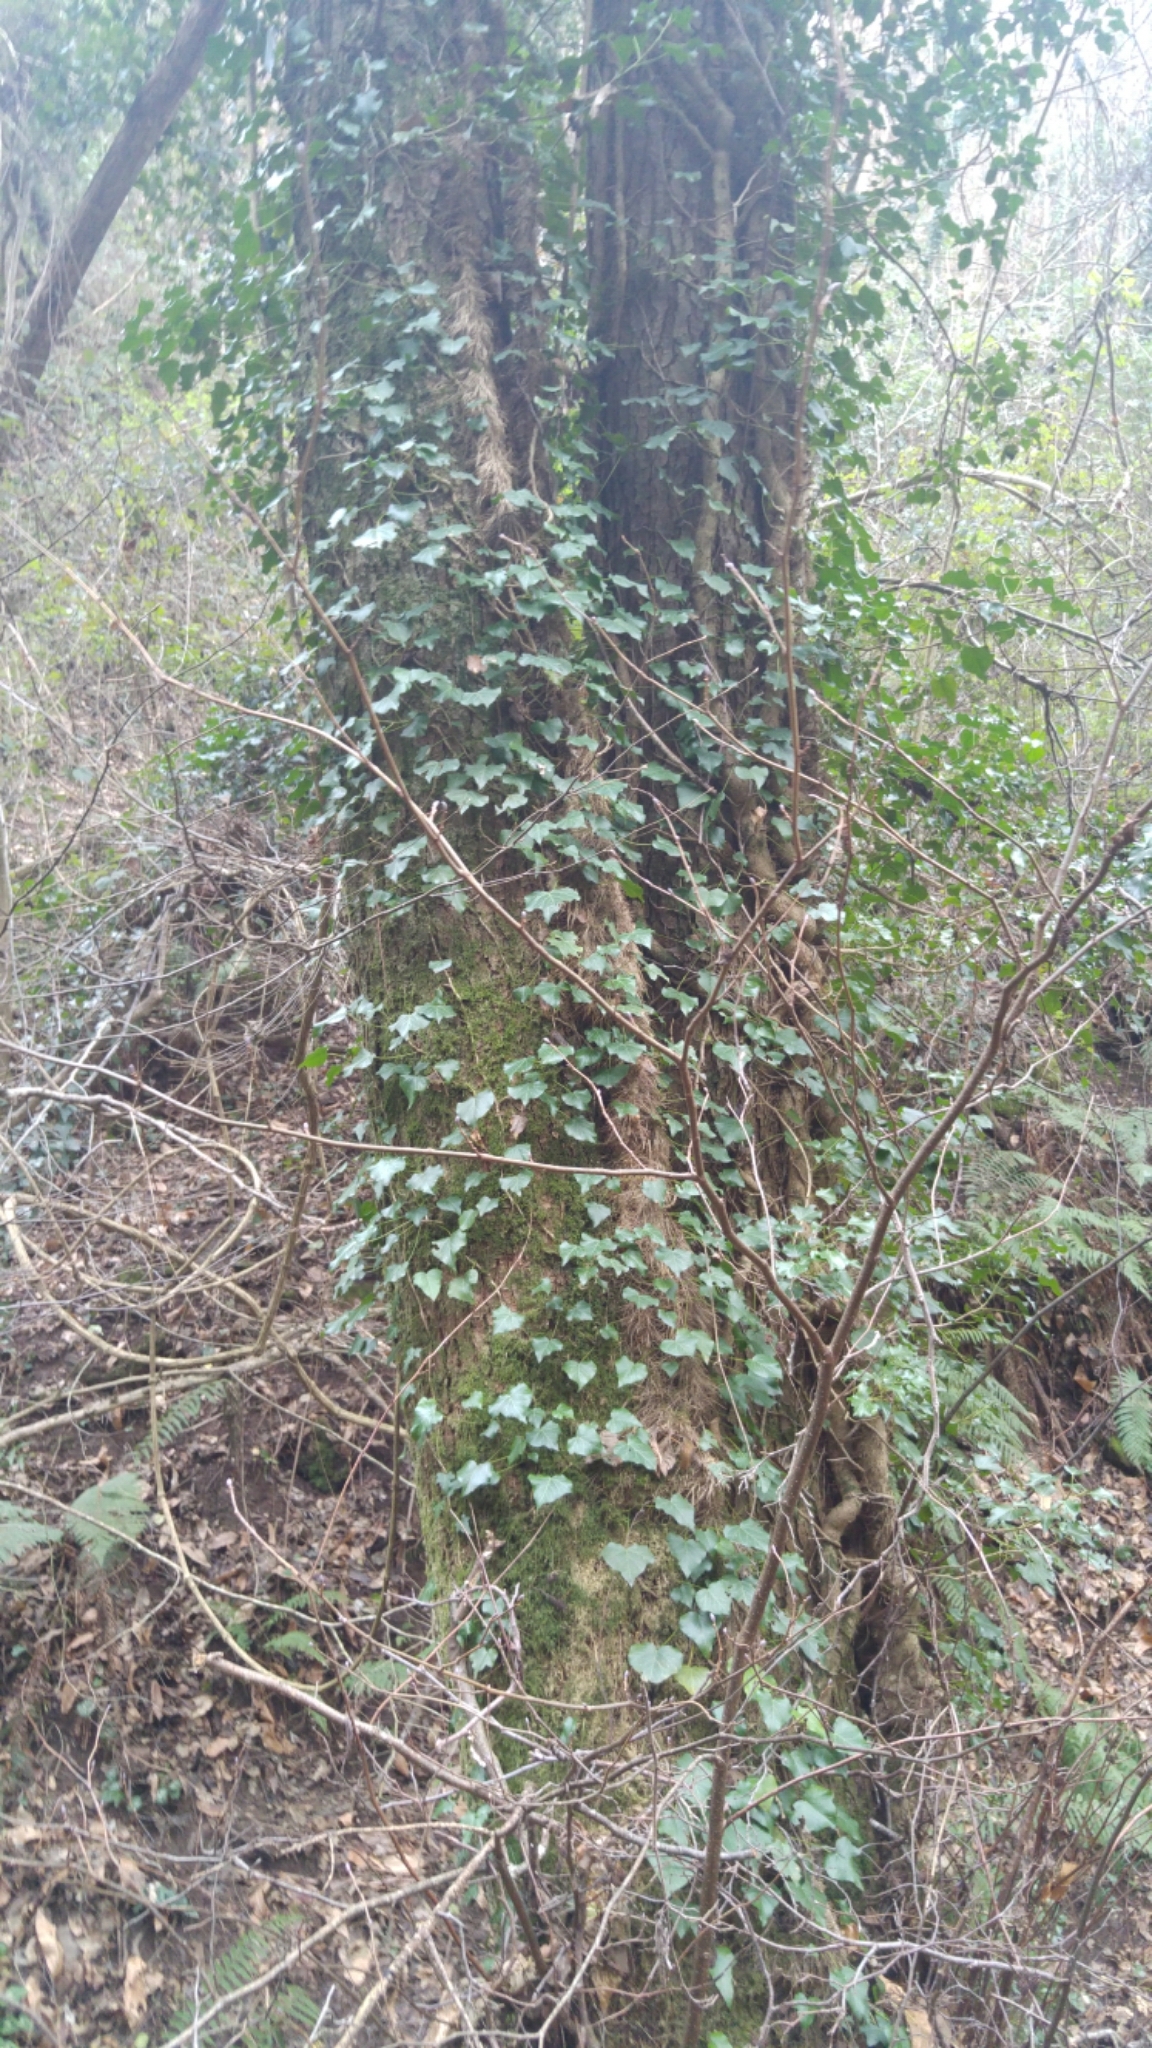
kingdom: Plantae
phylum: Tracheophyta
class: Magnoliopsida
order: Apiales
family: Araliaceae
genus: Hedera
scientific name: Hedera helix
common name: Ivy
